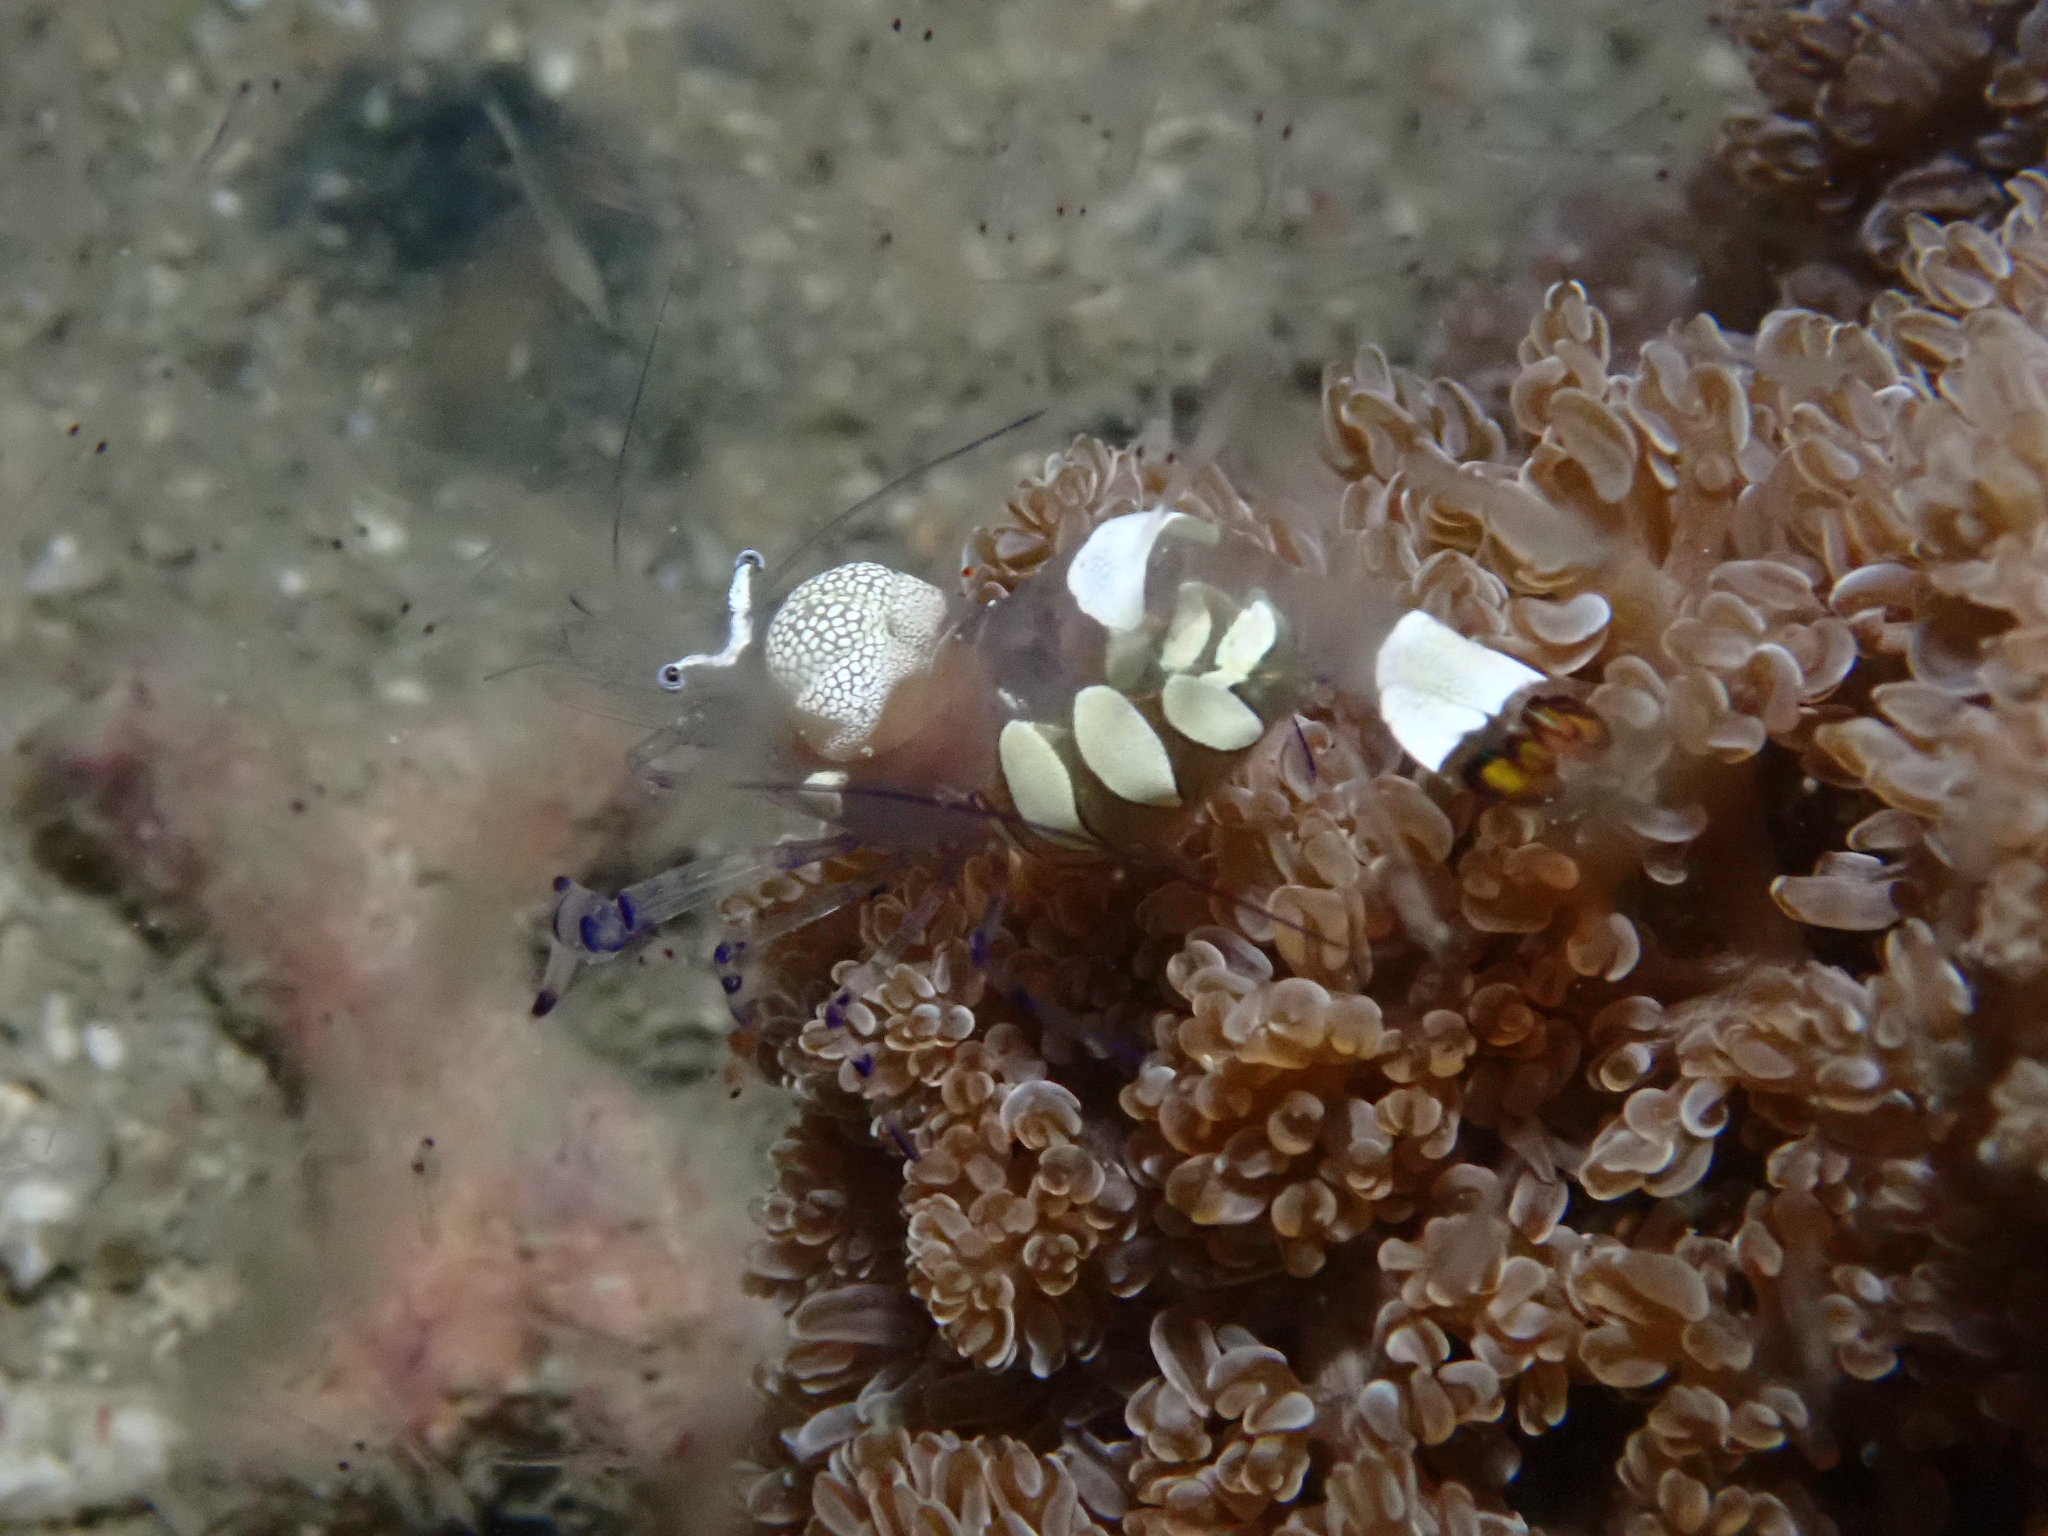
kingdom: Animalia
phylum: Arthropoda
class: Malacostraca
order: Decapoda
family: Palaemonidae
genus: Ancylocaris
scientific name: Ancylocaris brevicarpalis
